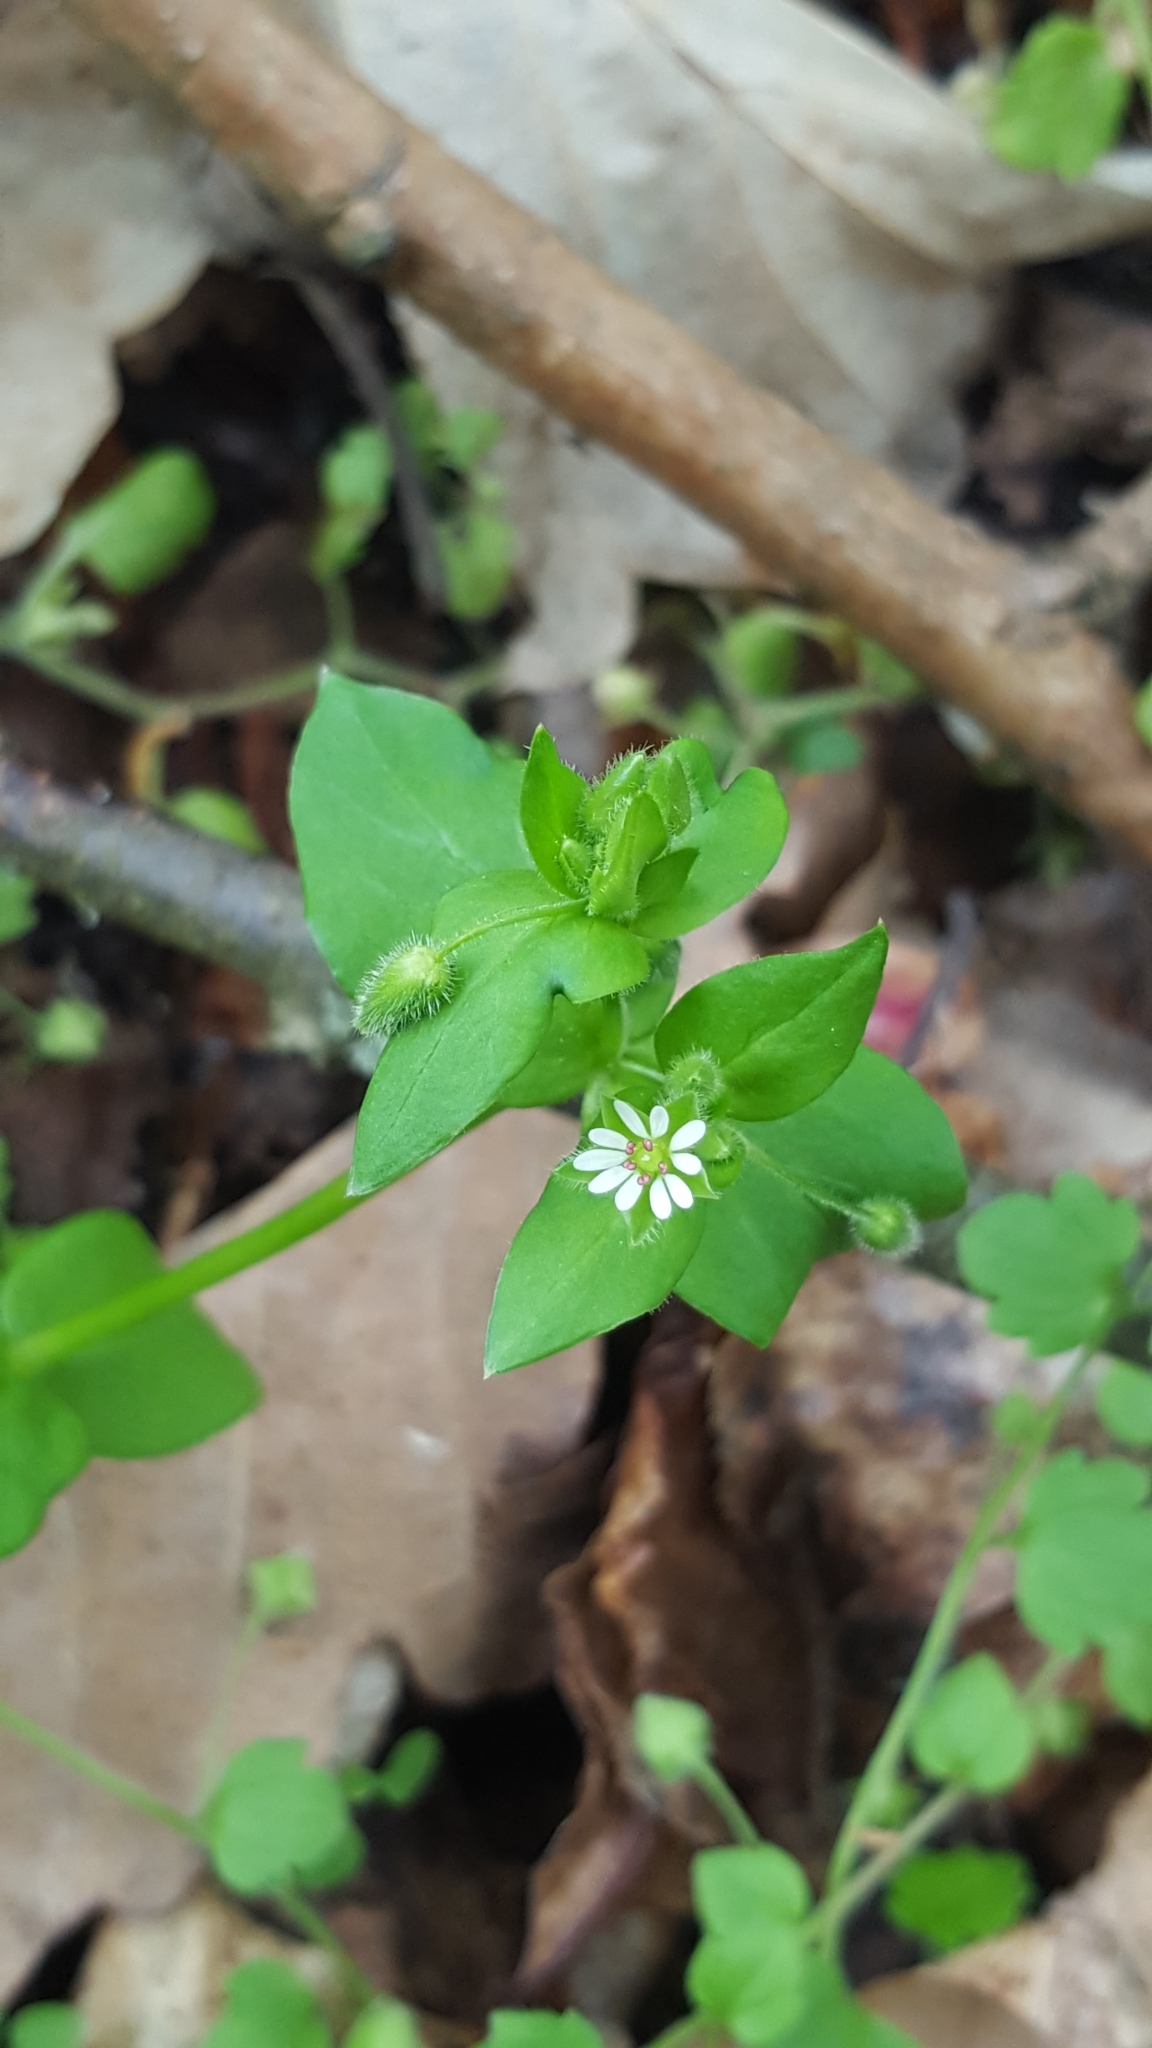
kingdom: Plantae
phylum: Tracheophyta
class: Magnoliopsida
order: Caryophyllales
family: Caryophyllaceae
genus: Stellaria
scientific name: Stellaria media
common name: Common chickweed
